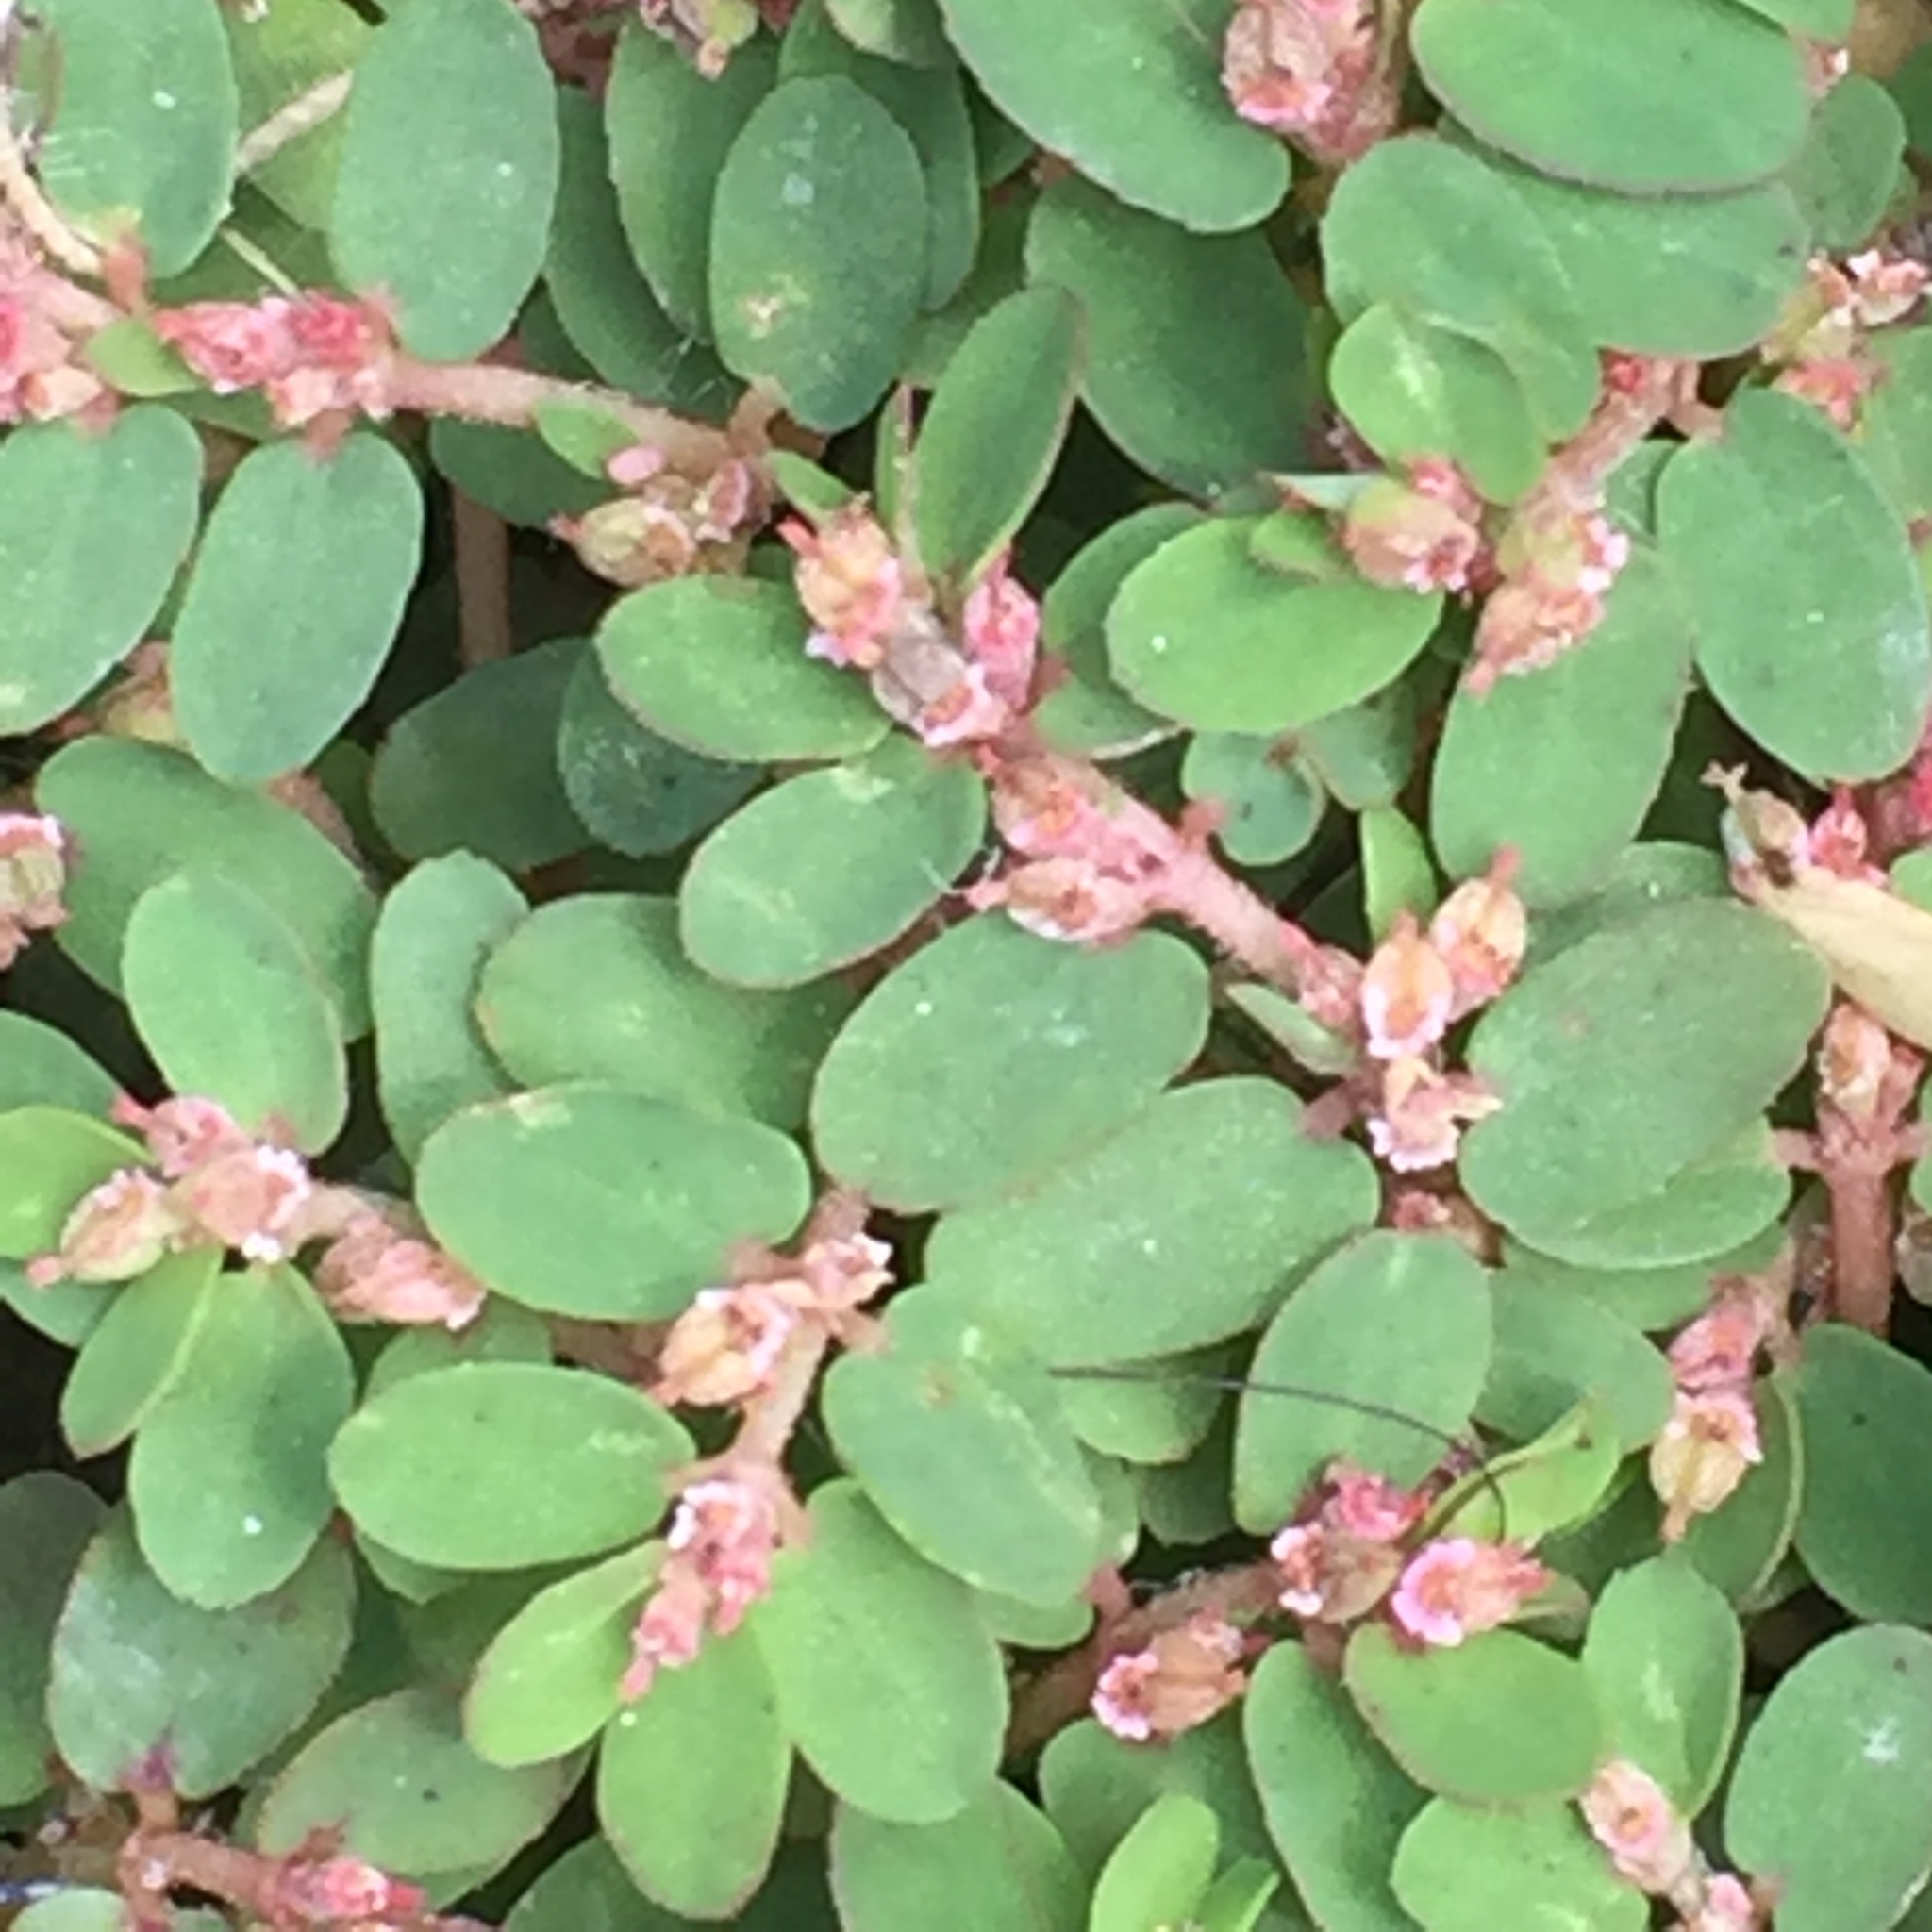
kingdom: Plantae
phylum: Tracheophyta
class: Magnoliopsida
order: Malpighiales
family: Euphorbiaceae
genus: Euphorbia
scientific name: Euphorbia thymifolia
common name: Gulf sandmat
